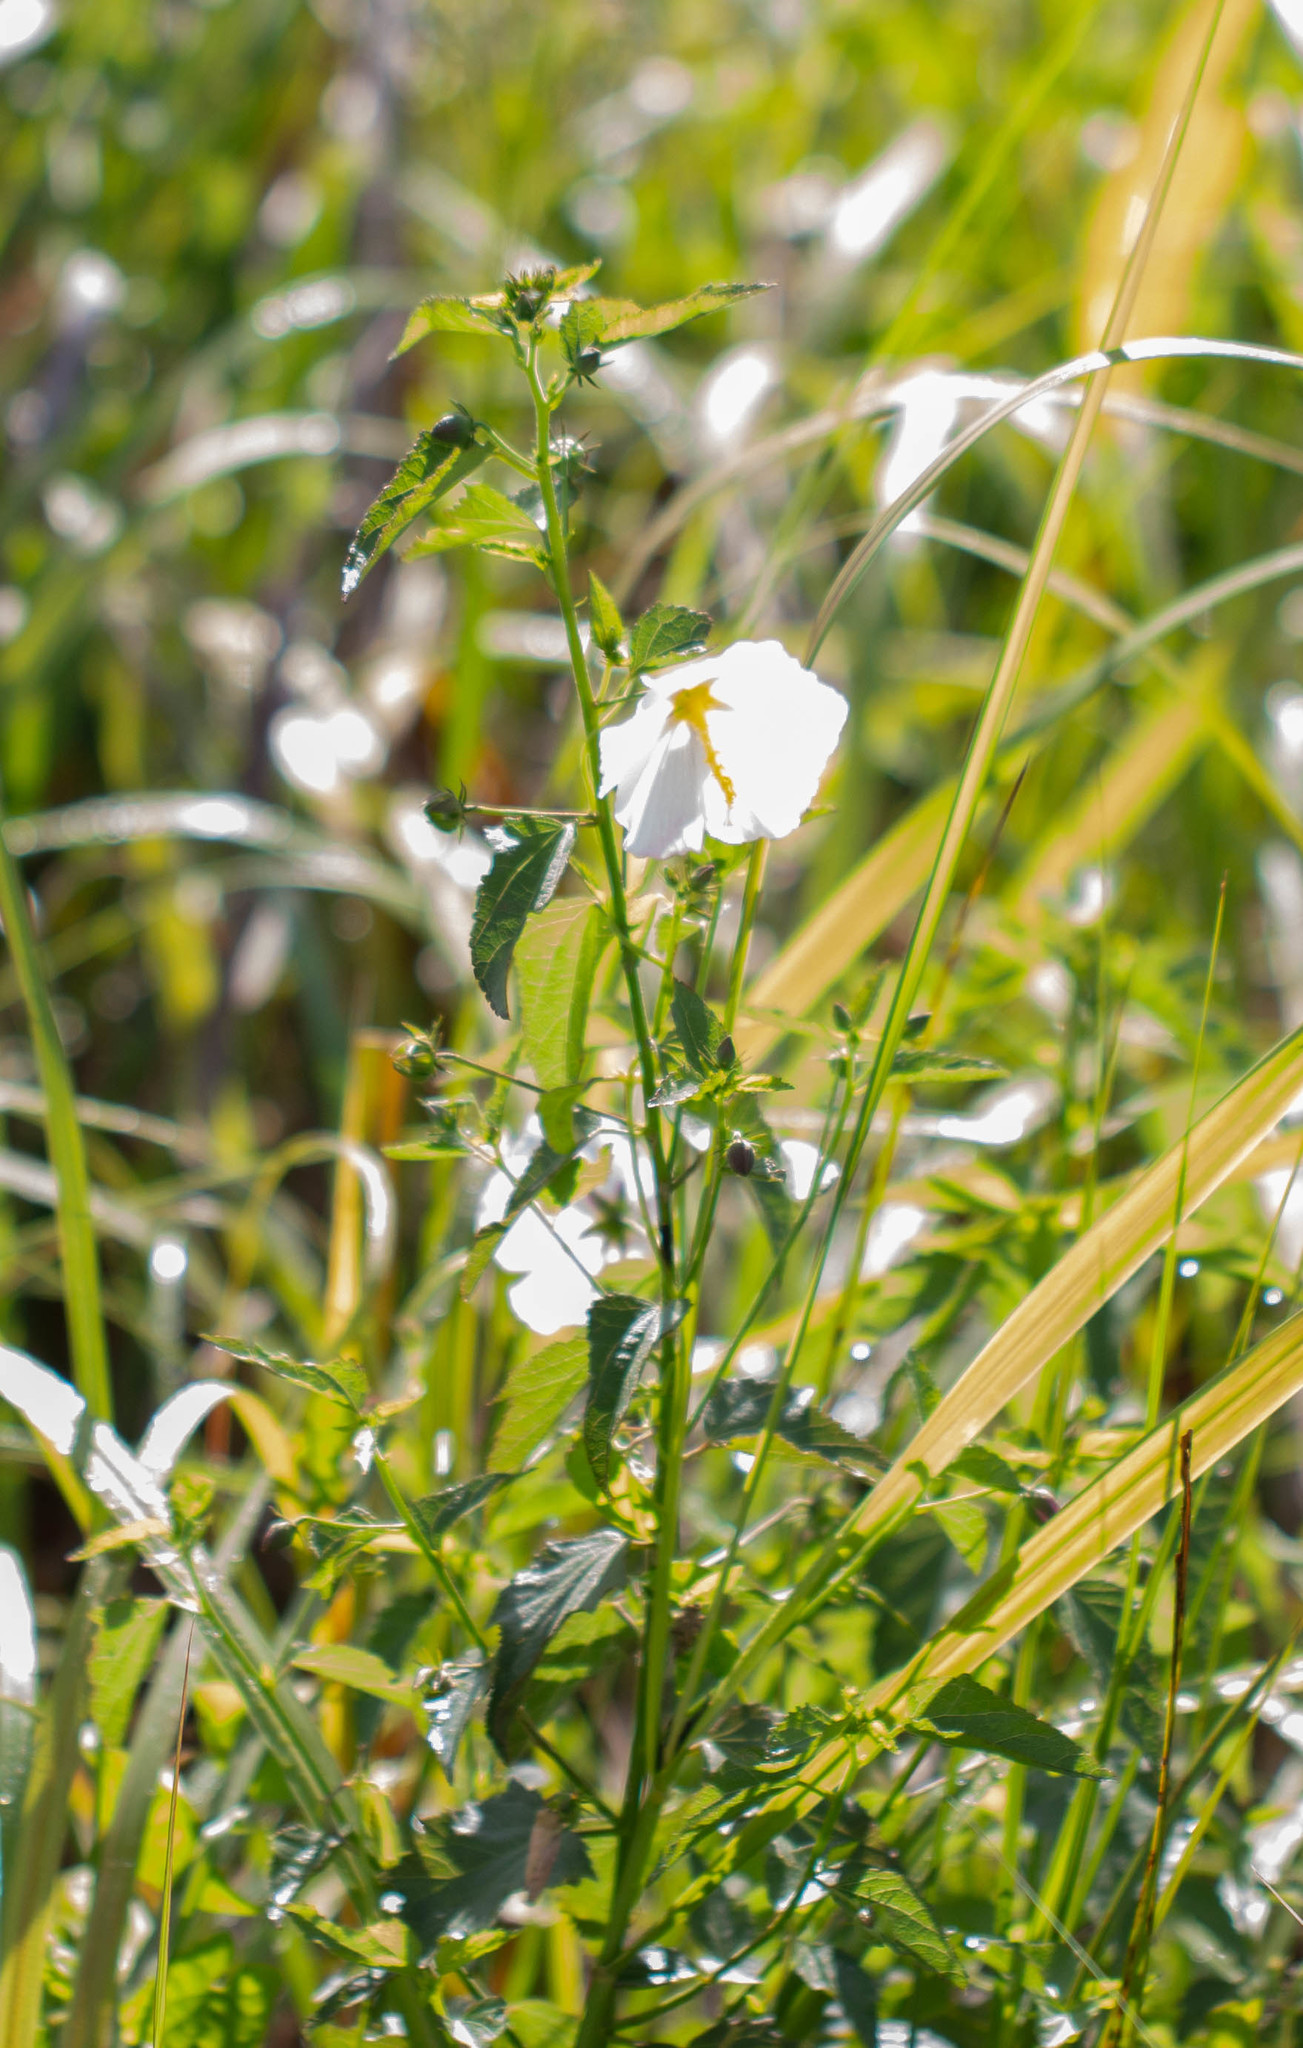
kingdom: Plantae
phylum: Tracheophyta
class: Magnoliopsida
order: Malvales
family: Malvaceae
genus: Kosteletzkya
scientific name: Kosteletzkya pentacarpos
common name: Virginia saltmarsh mallow
